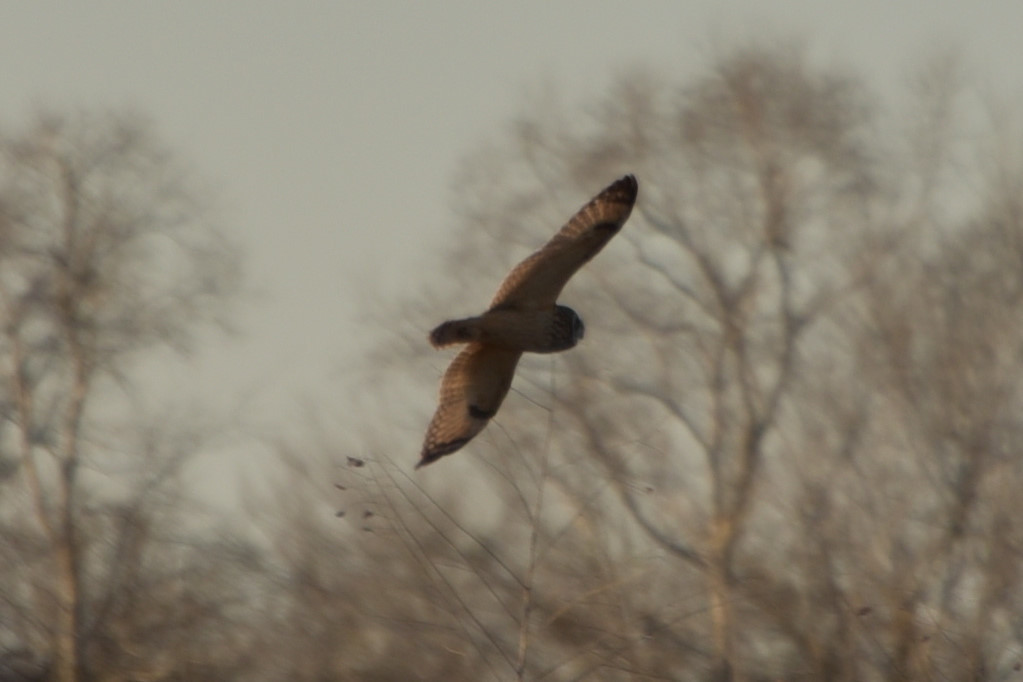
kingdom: Animalia
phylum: Chordata
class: Aves
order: Strigiformes
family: Strigidae
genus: Asio
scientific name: Asio flammeus
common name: Short-eared owl
